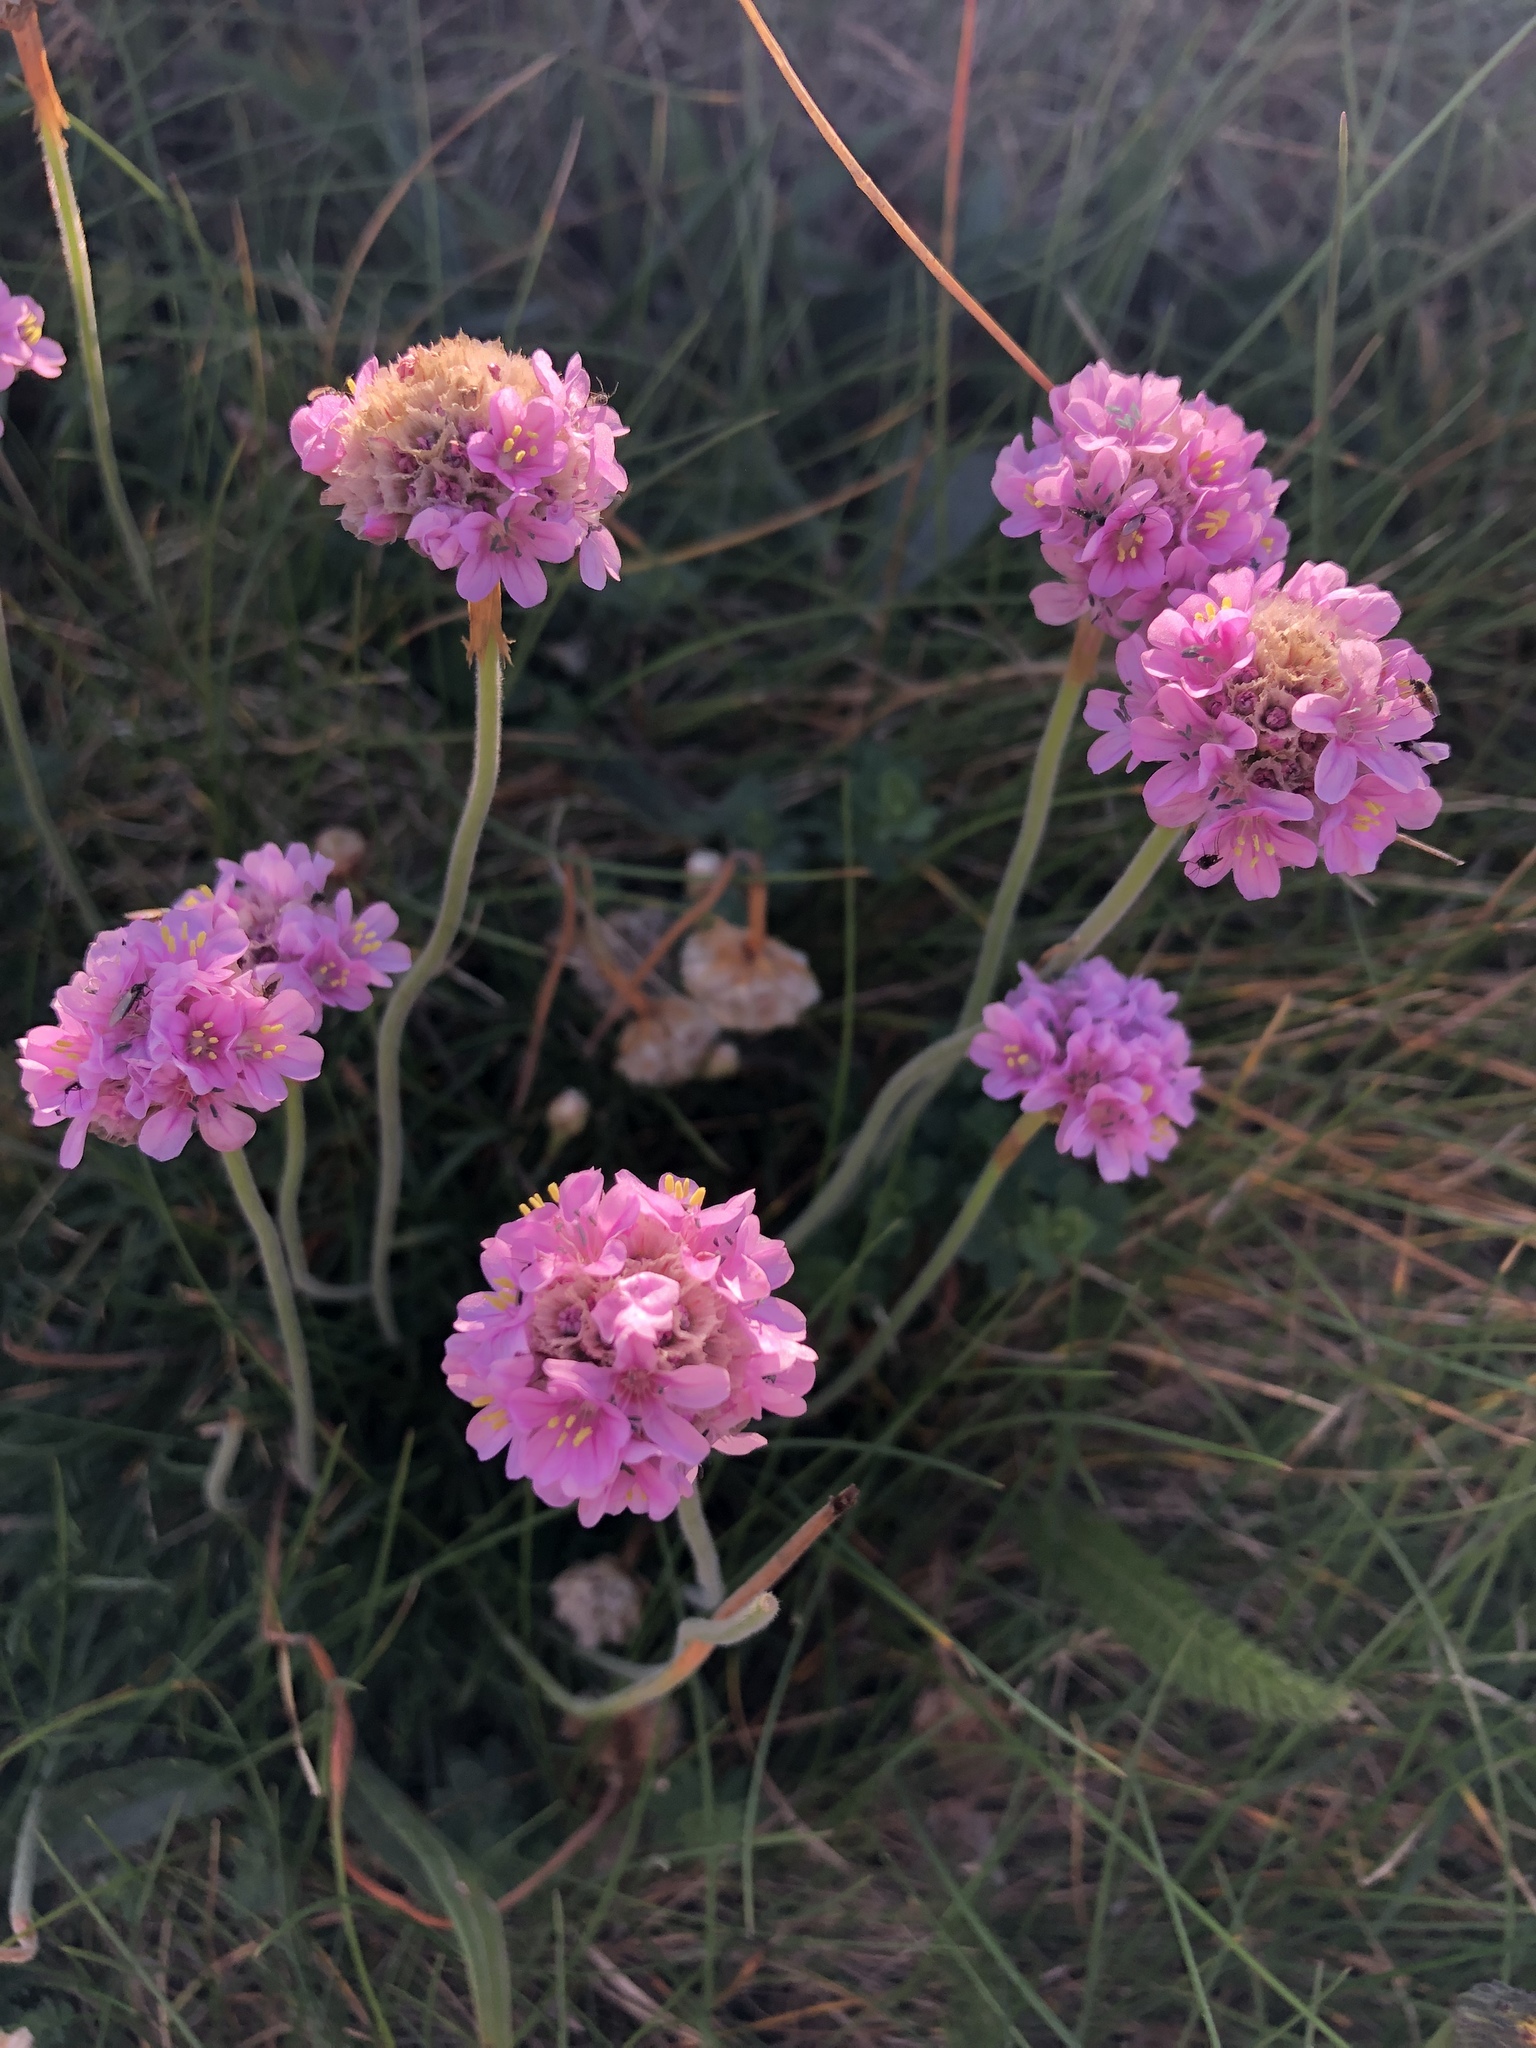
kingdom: Plantae
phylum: Tracheophyta
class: Magnoliopsida
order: Caryophyllales
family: Plumbaginaceae
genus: Armeria
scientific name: Armeria maritima
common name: Thrift
